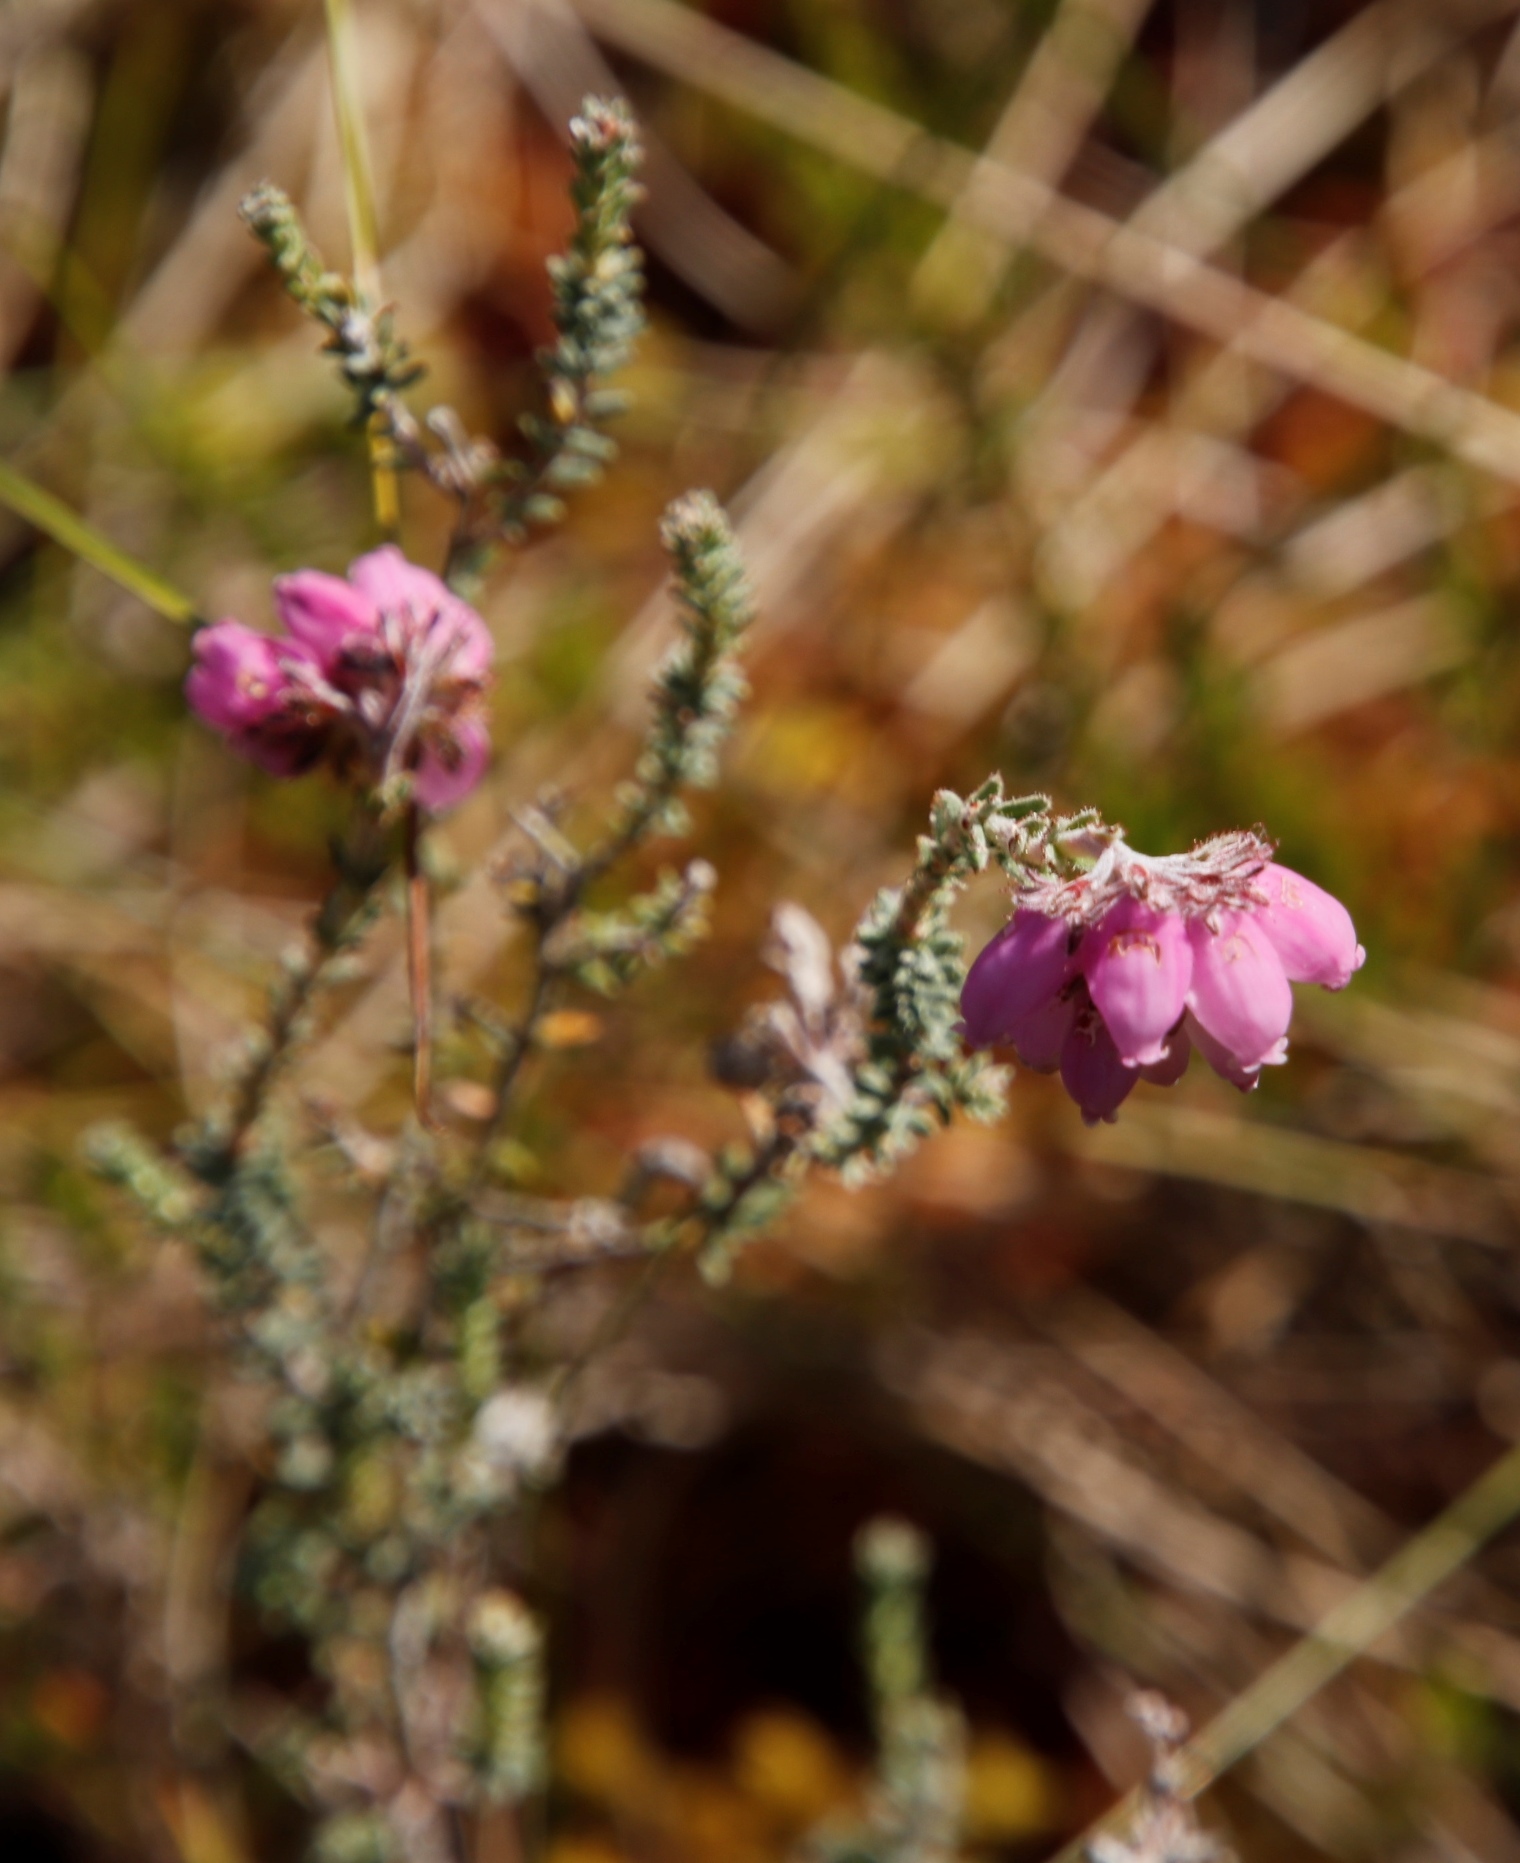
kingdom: Plantae
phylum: Tracheophyta
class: Magnoliopsida
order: Ericales
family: Ericaceae
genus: Erica
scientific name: Erica tetralix
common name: Cross-leaved heath
